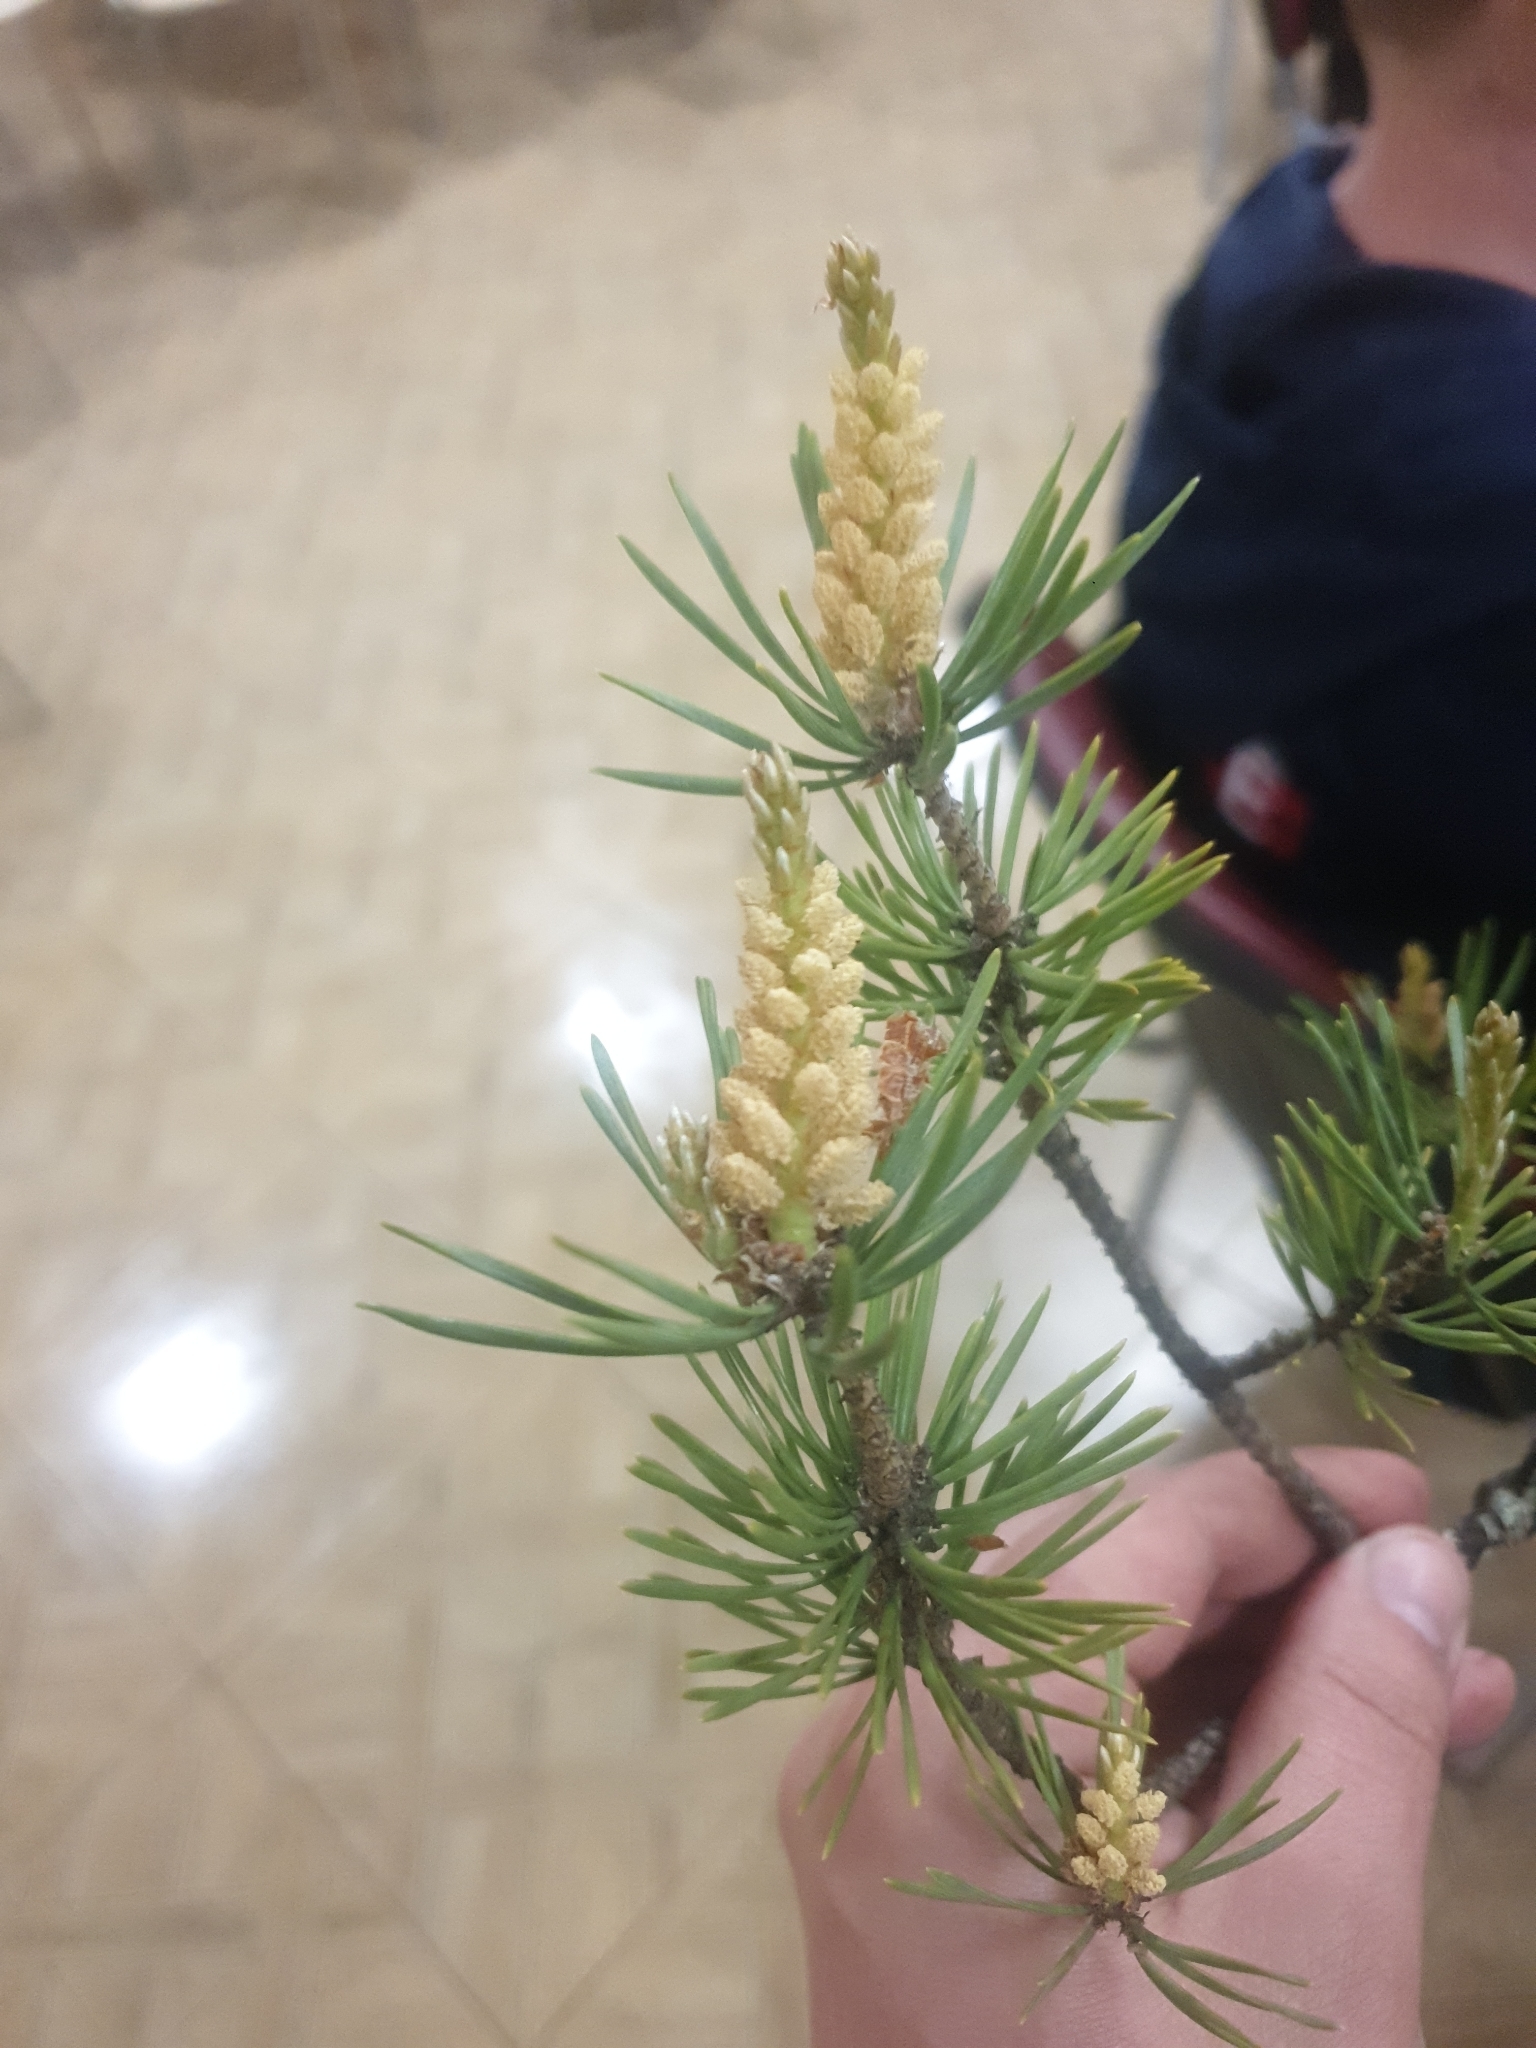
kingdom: Plantae
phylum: Tracheophyta
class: Pinopsida
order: Pinales
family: Pinaceae
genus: Pinus
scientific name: Pinus sylvestris
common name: Scots pine
